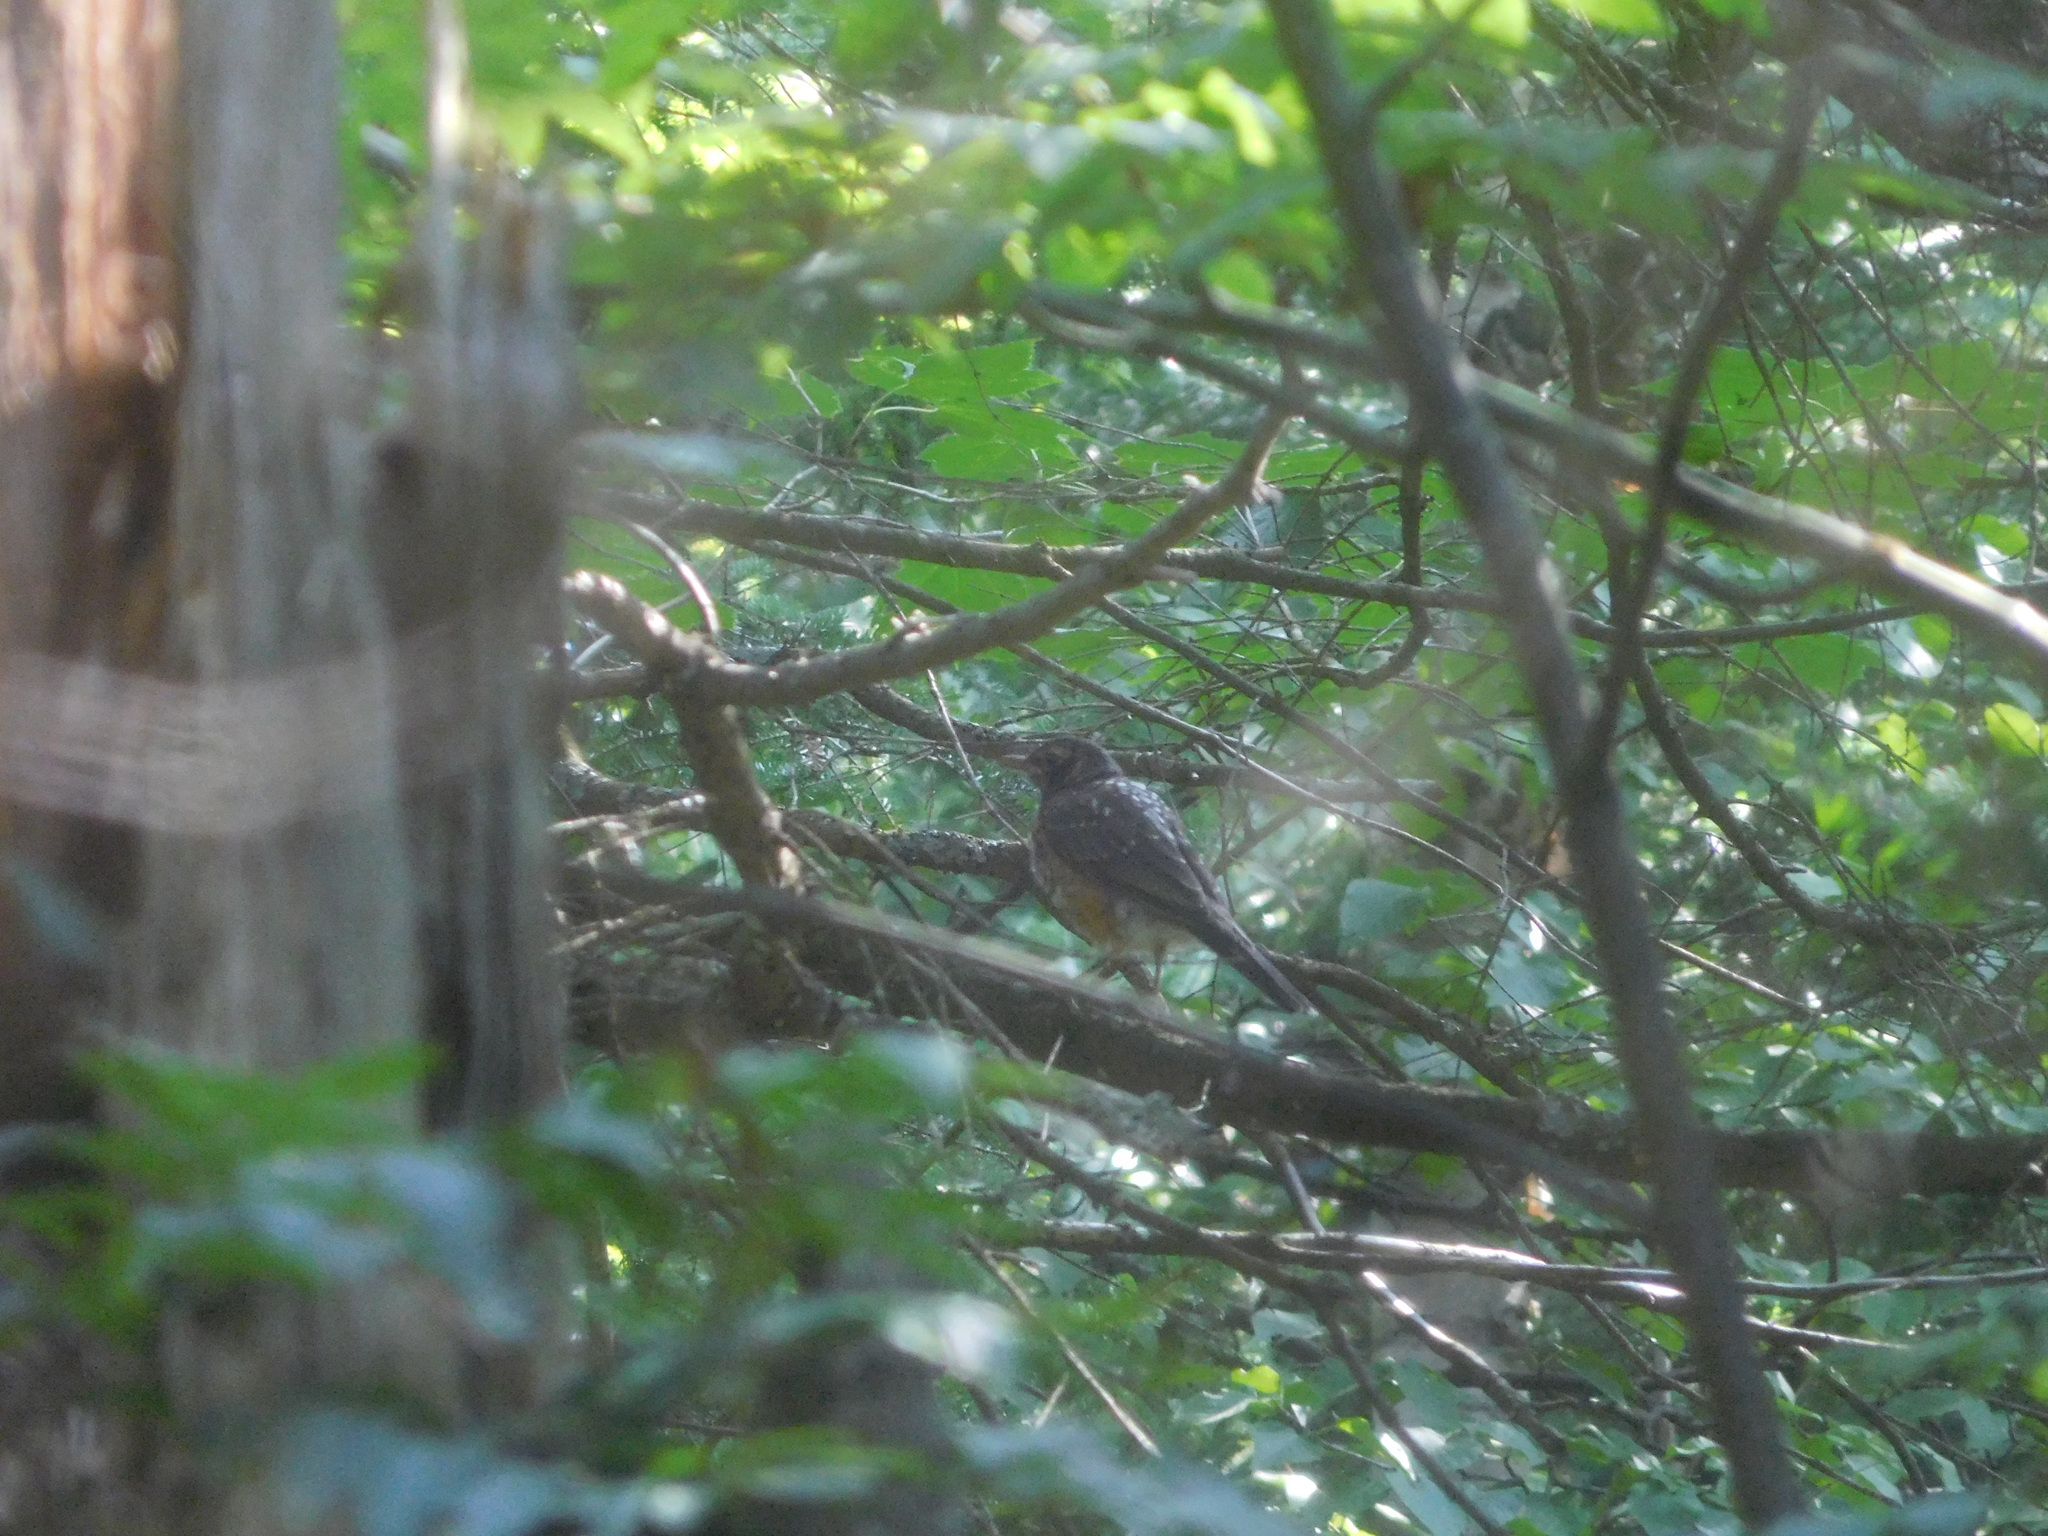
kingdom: Animalia
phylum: Chordata
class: Aves
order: Passeriformes
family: Turdidae
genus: Turdus
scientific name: Turdus migratorius
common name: American robin
